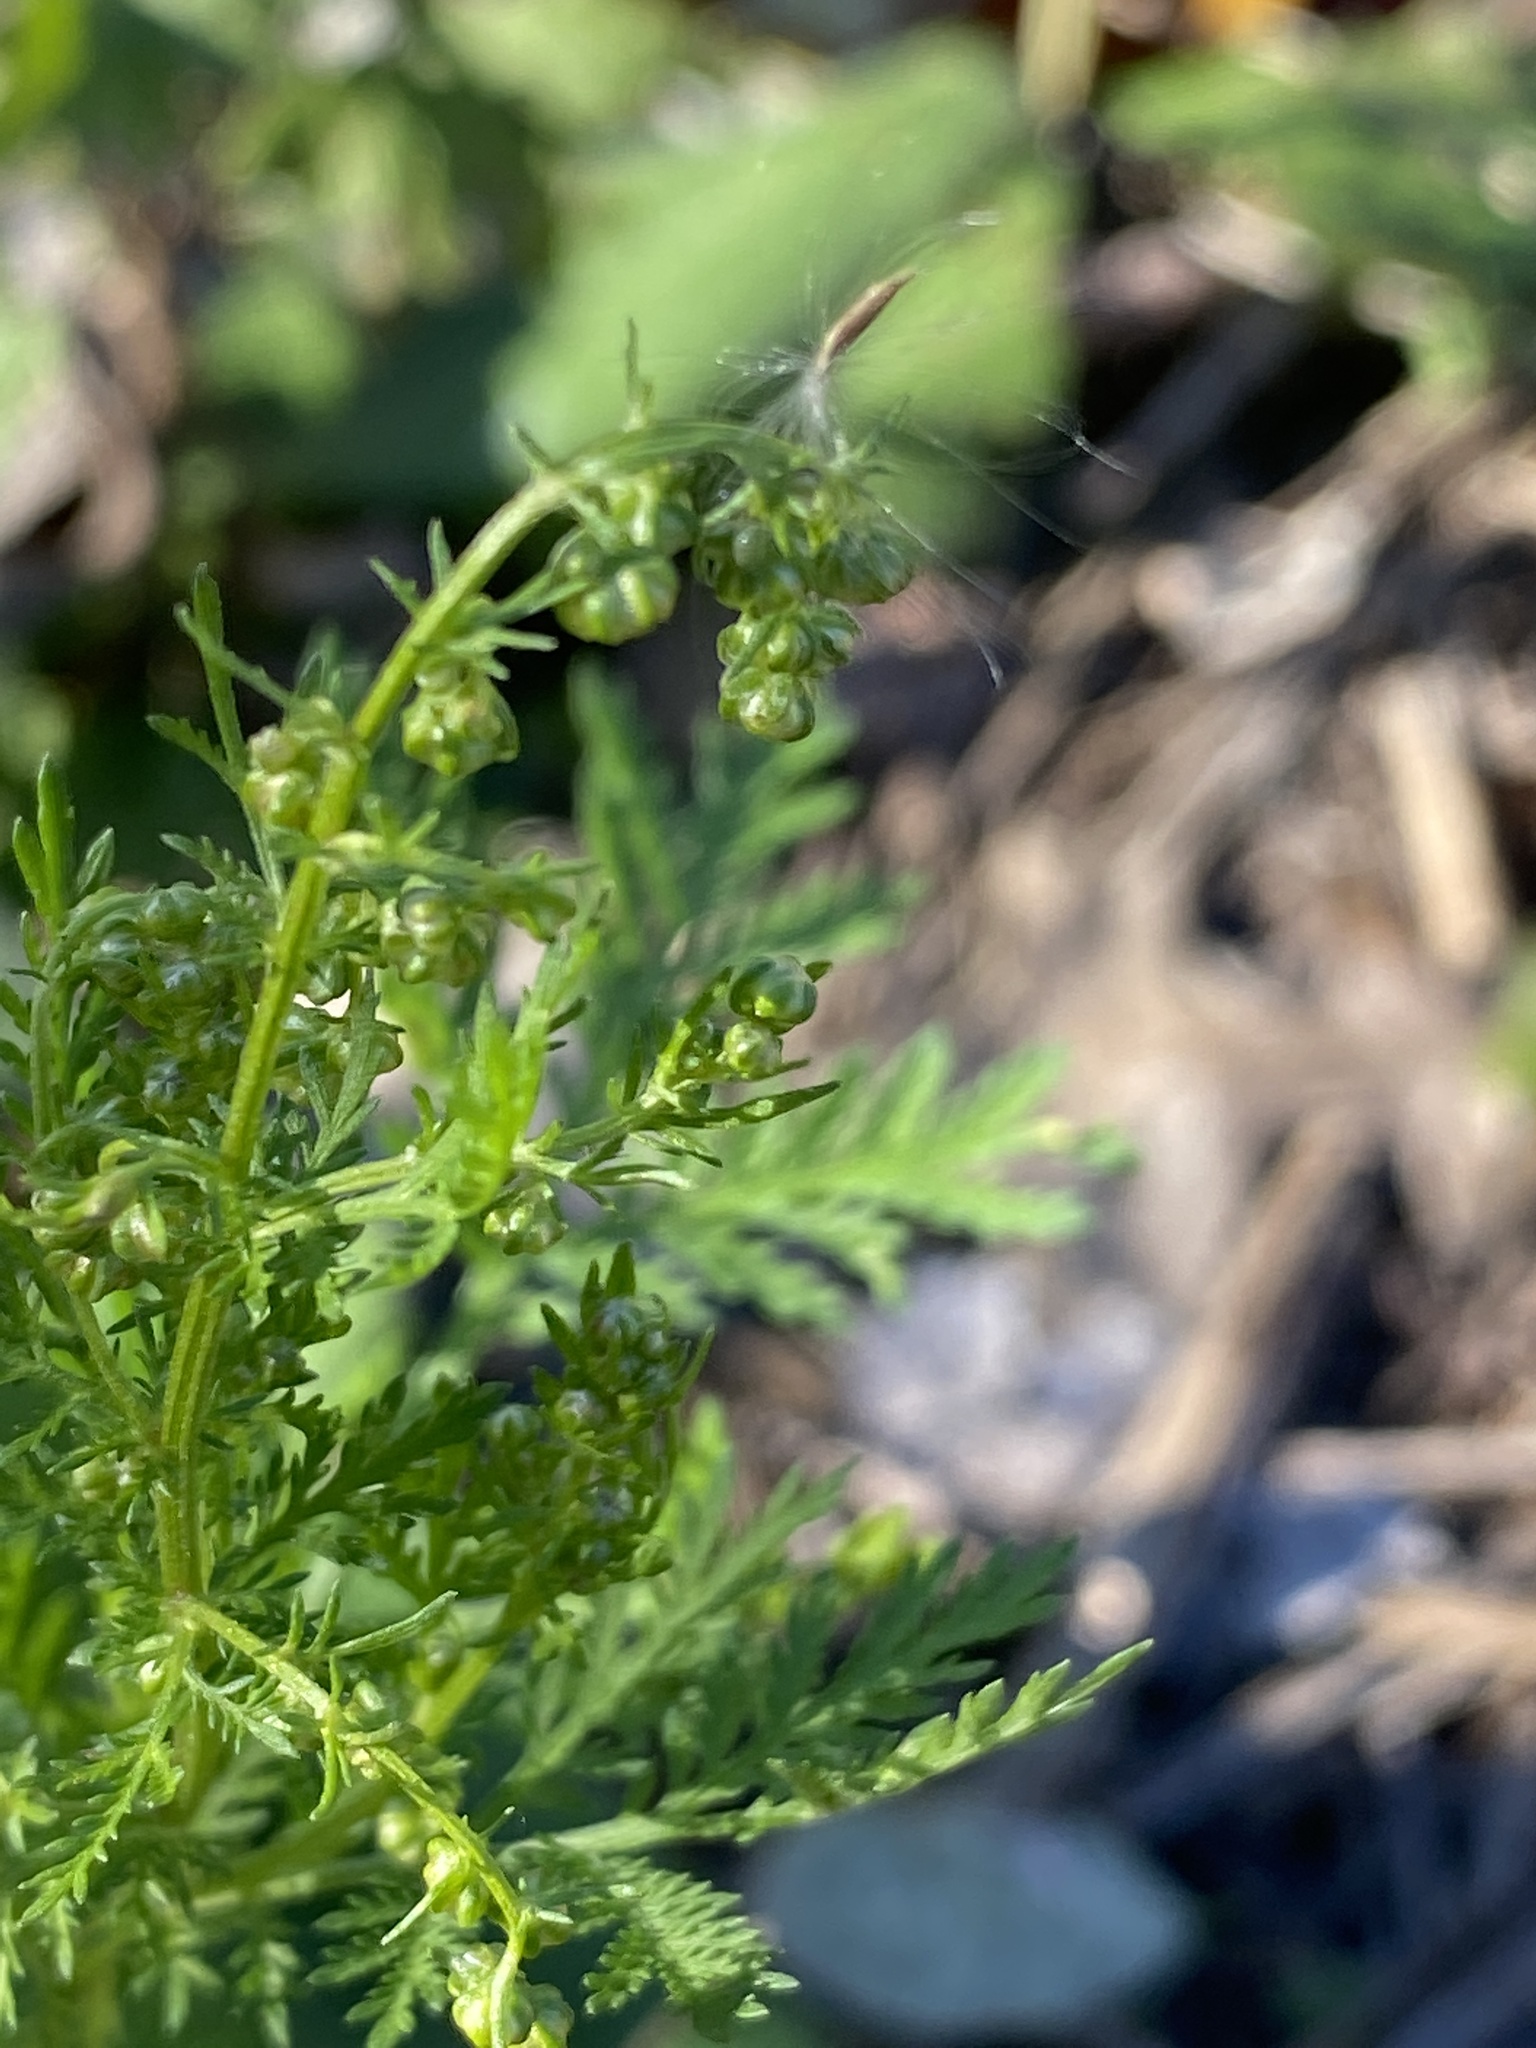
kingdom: Plantae
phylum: Tracheophyta
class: Magnoliopsida
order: Asterales
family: Asteraceae
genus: Artemisia
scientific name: Artemisia annua
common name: Sweet sagewort
